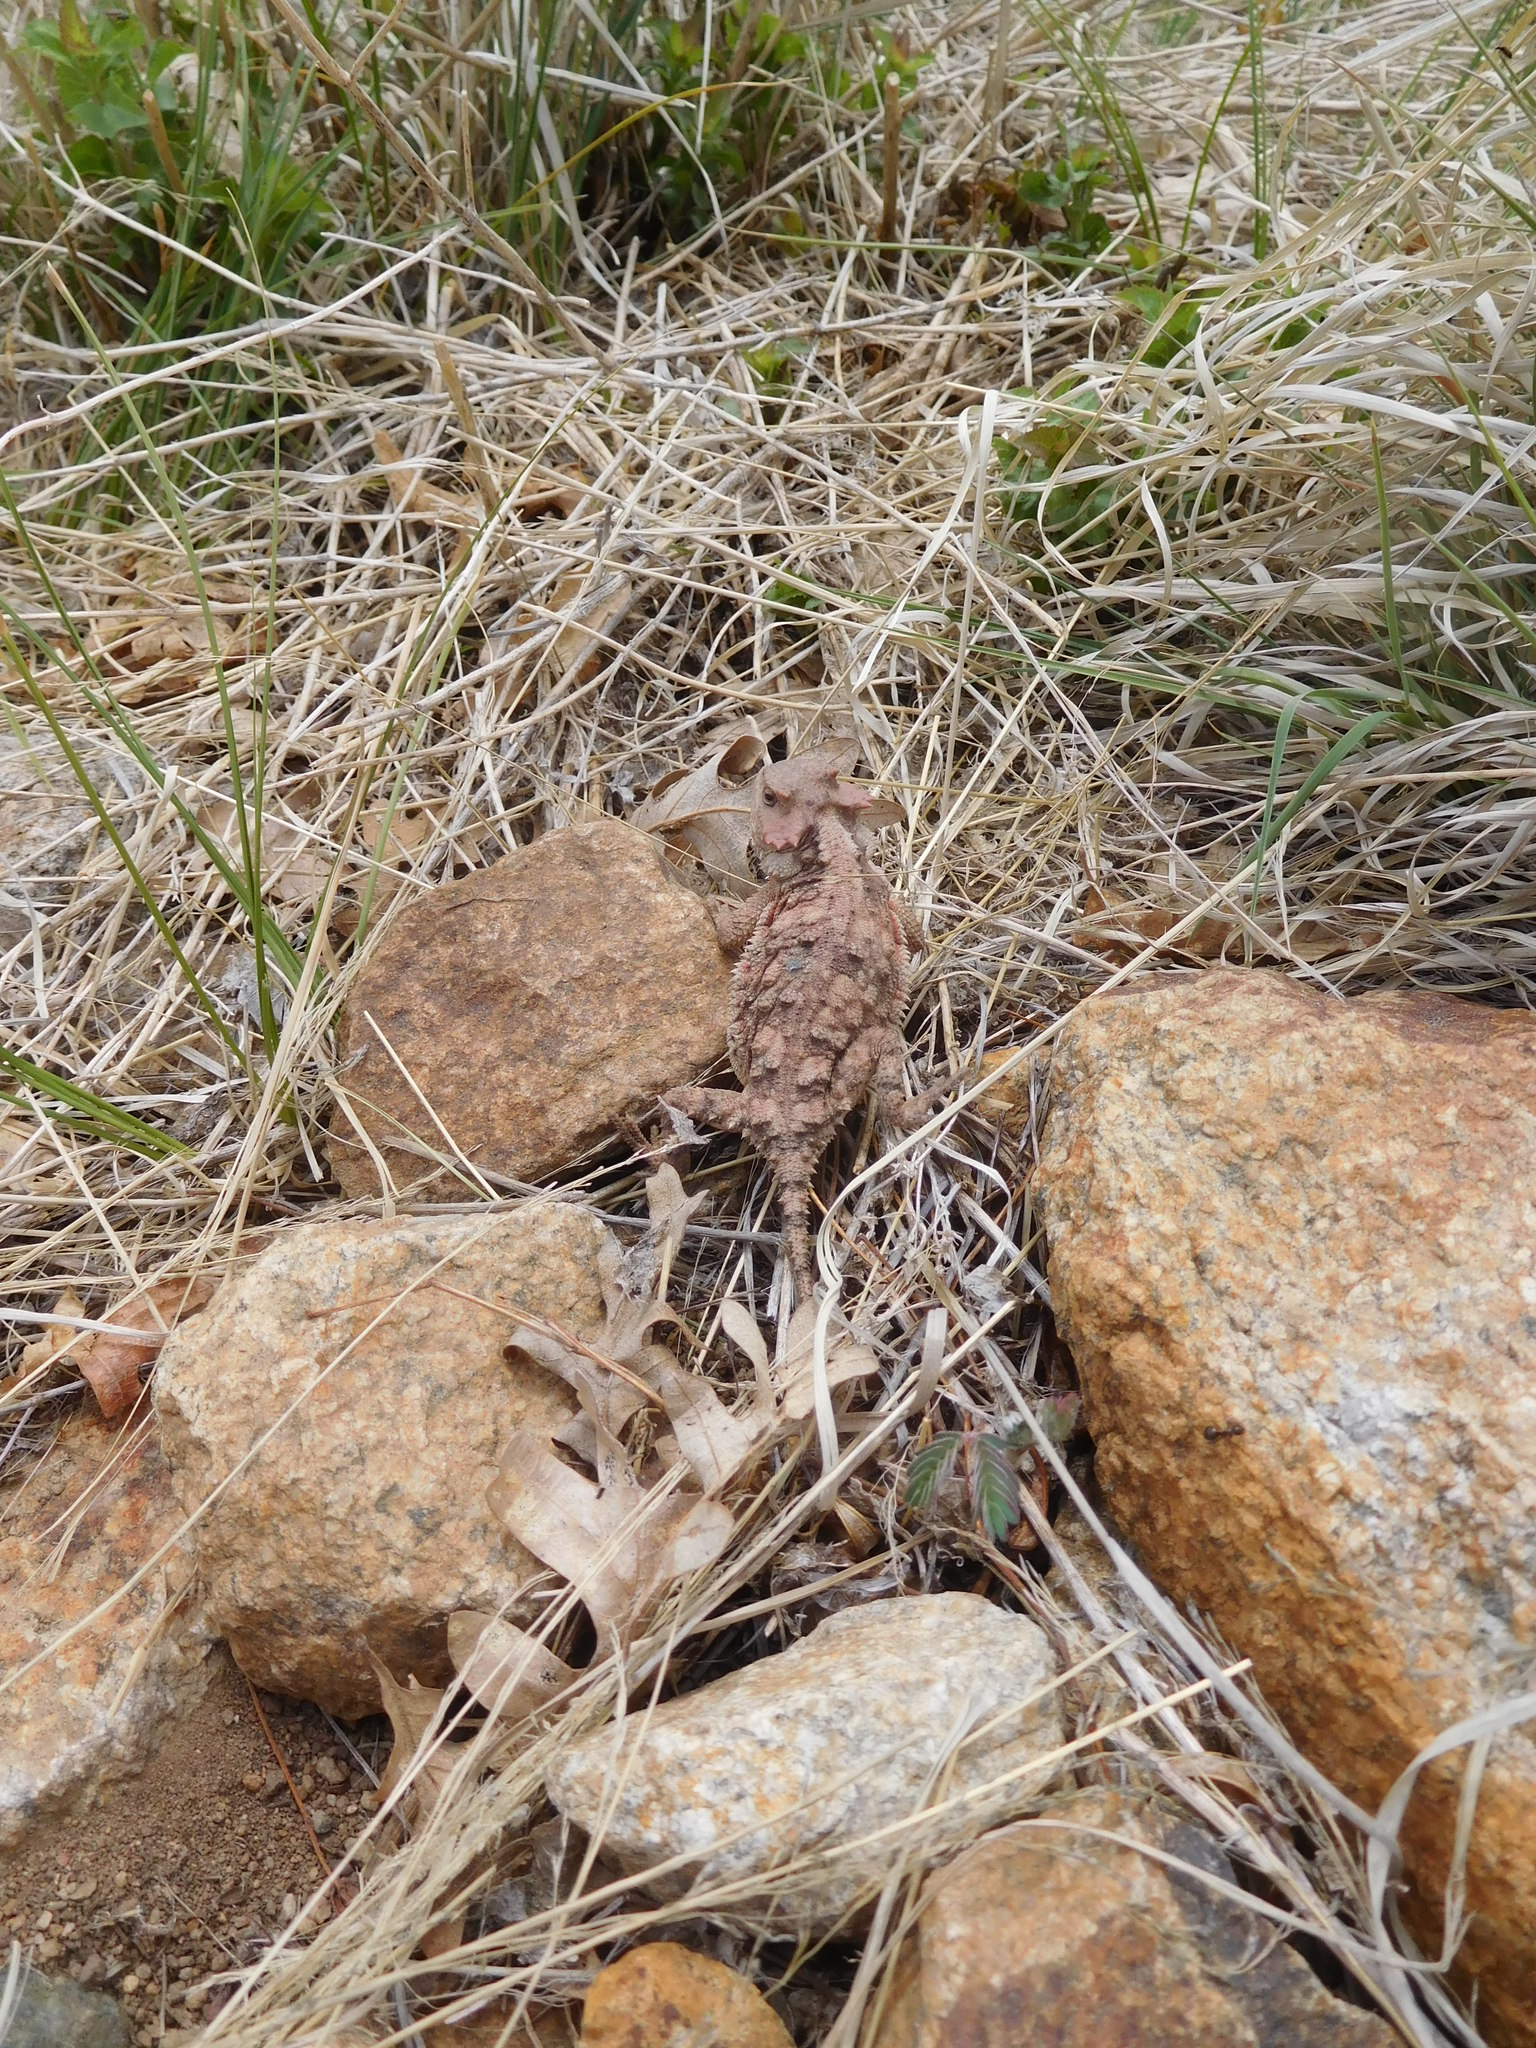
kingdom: Animalia
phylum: Chordata
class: Squamata
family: Phrynosomatidae
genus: Phrynosoma
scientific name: Phrynosoma hernandesi
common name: Greater short-horned lizard
